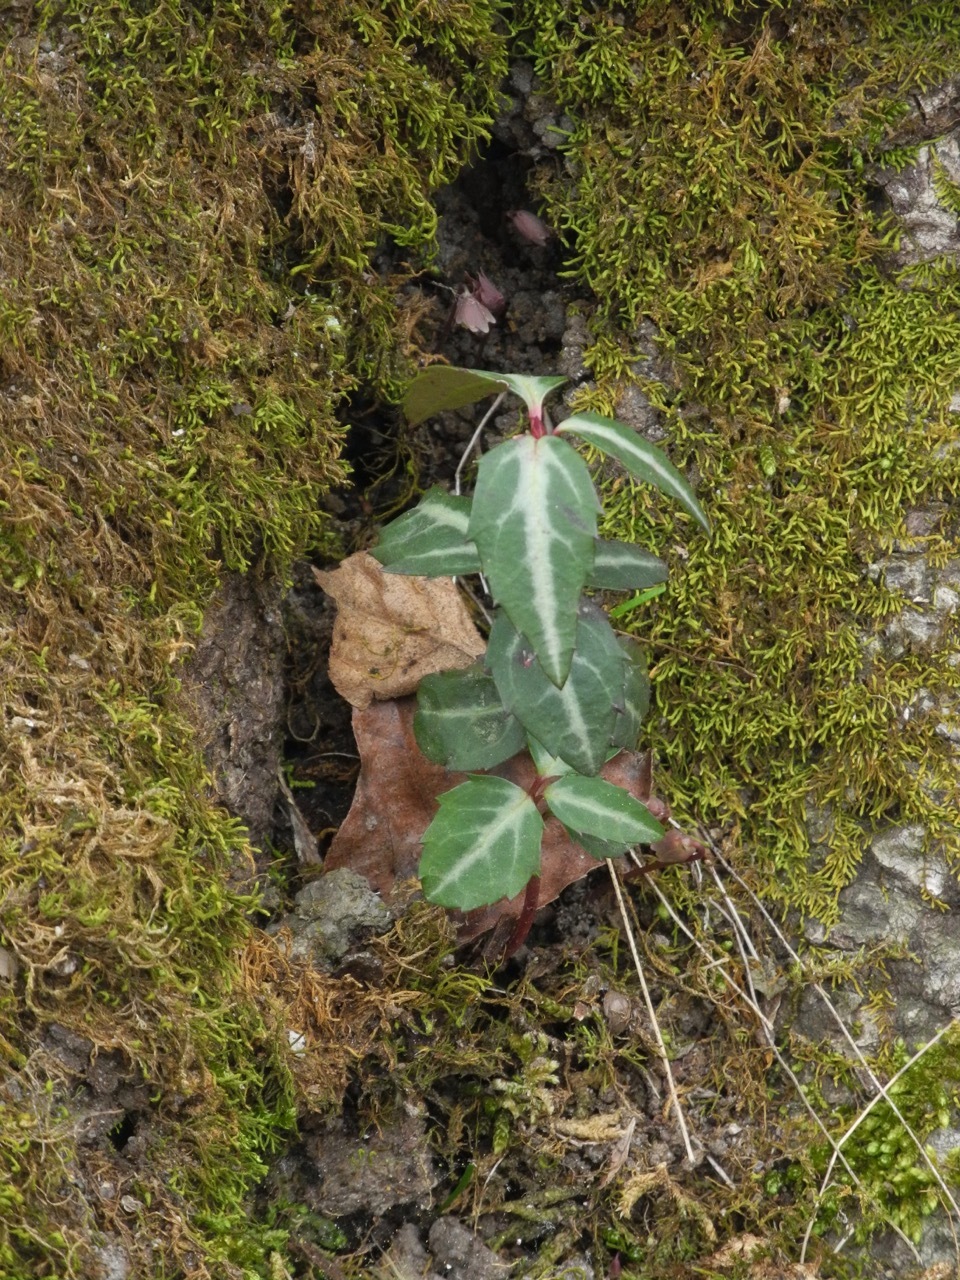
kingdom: Plantae
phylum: Tracheophyta
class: Magnoliopsida
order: Ericales
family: Ericaceae
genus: Chimaphila
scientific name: Chimaphila maculata
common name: Spotted pipsissewa
